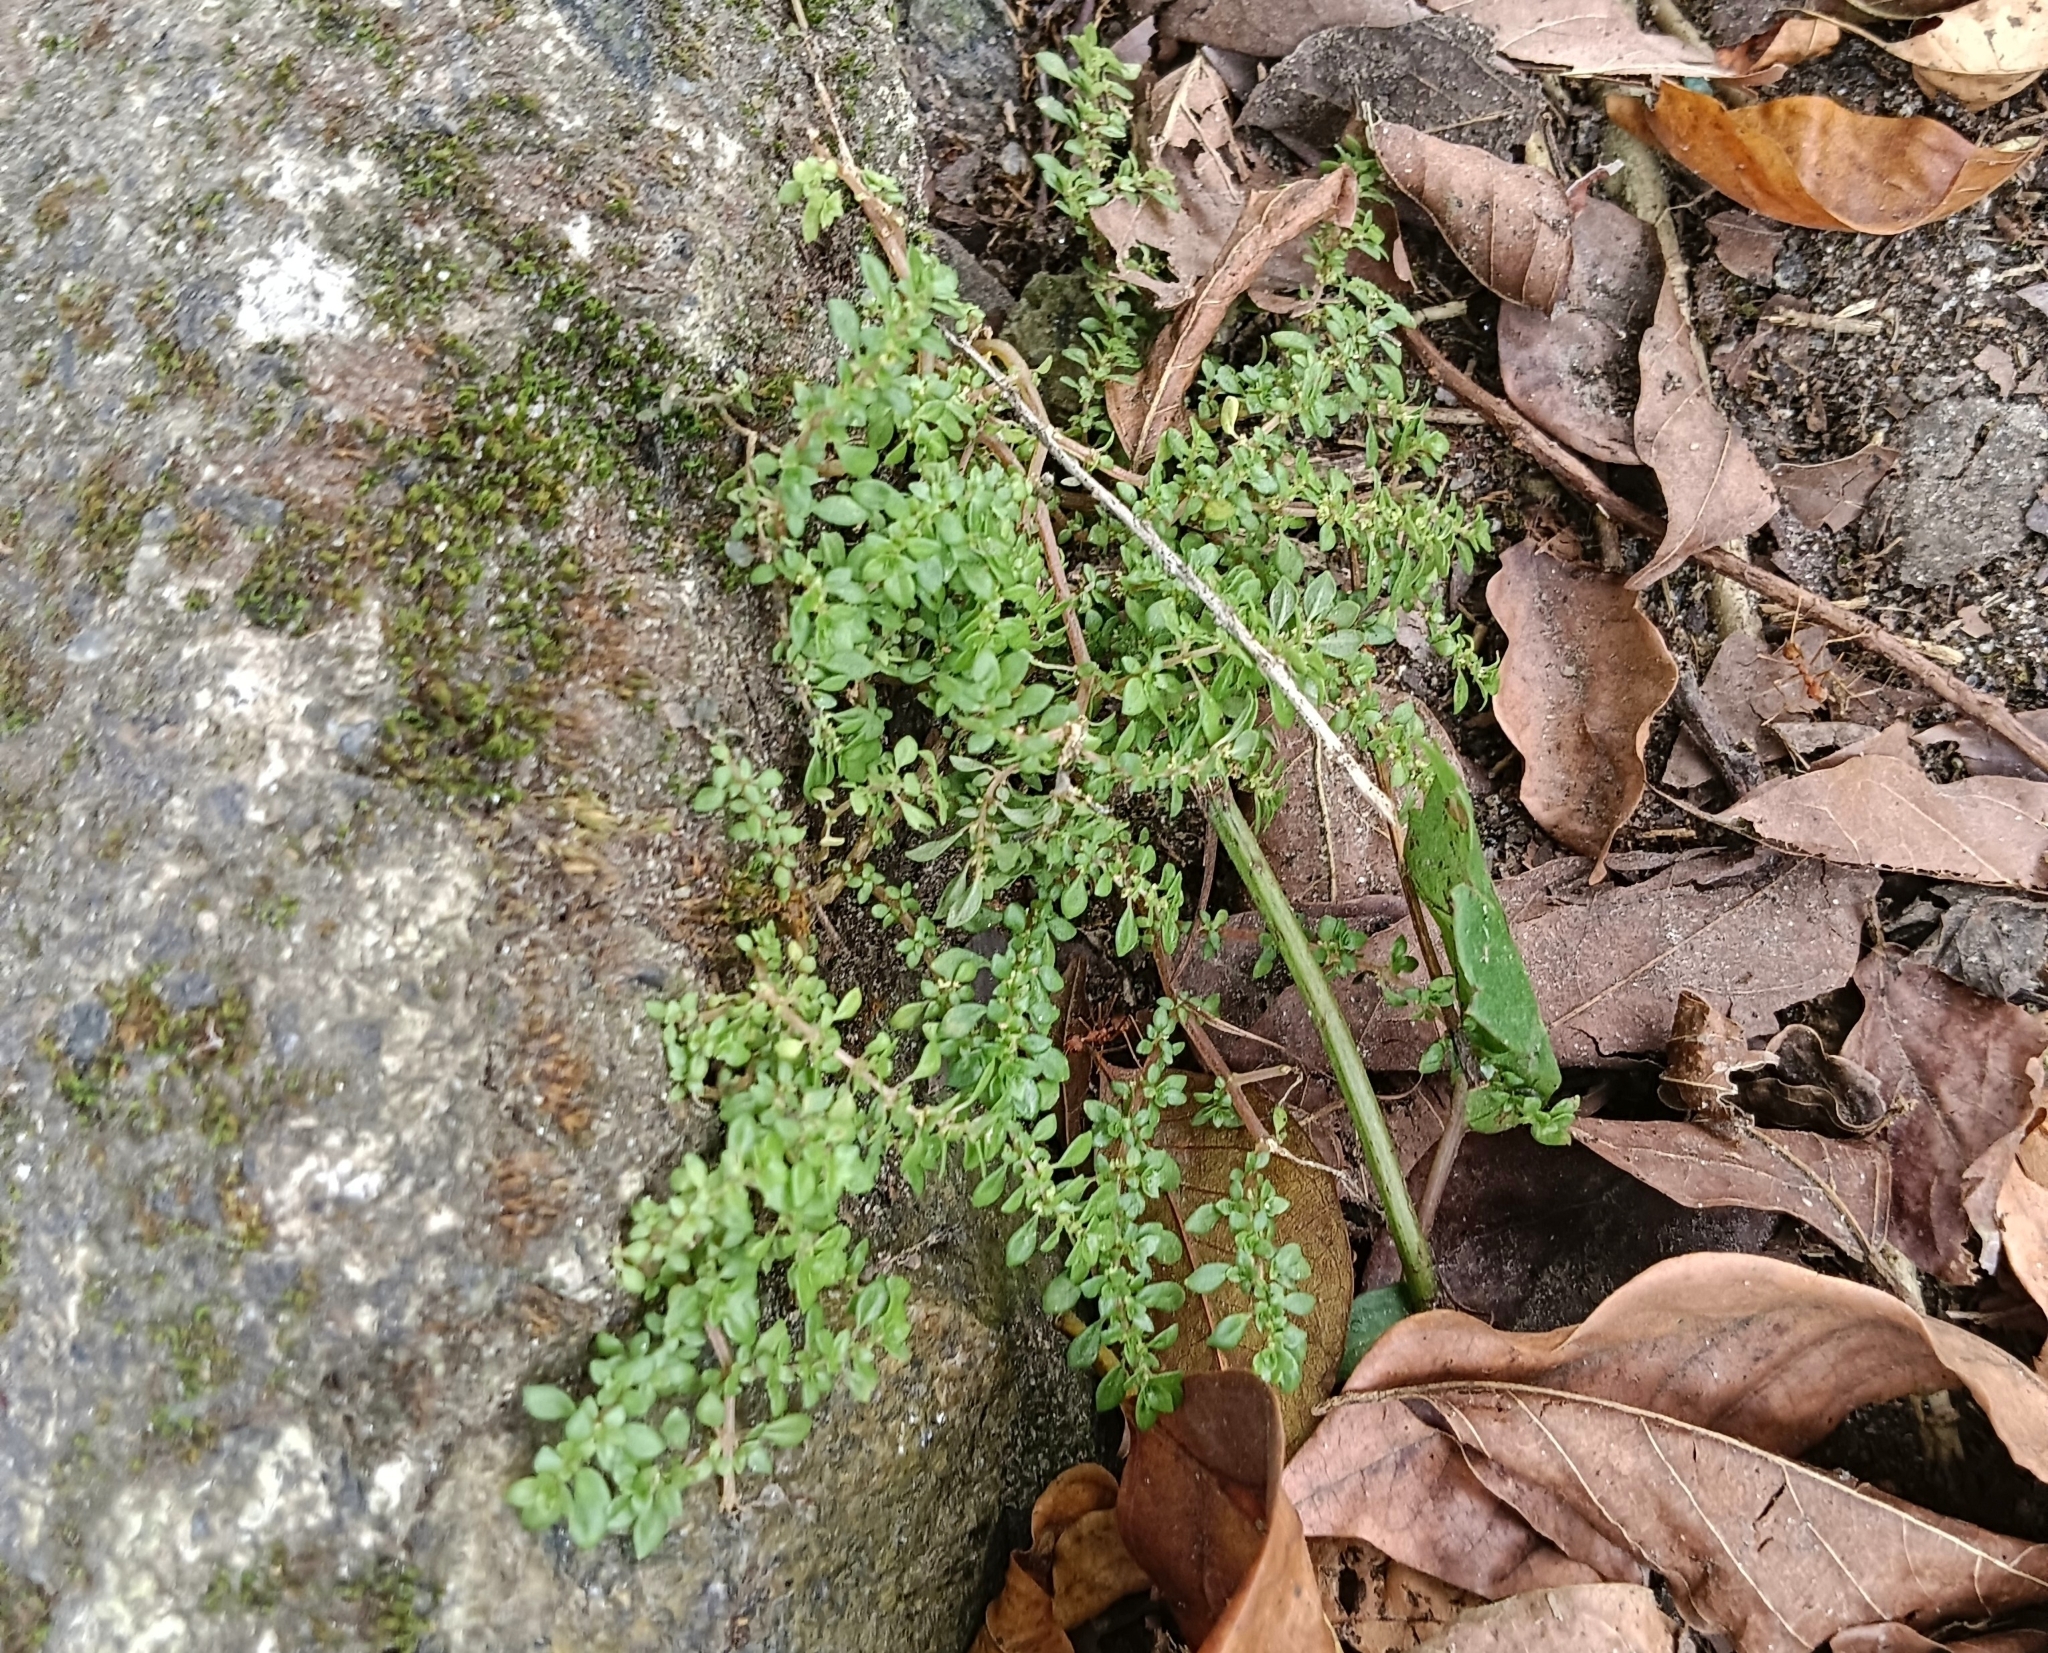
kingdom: Plantae
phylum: Tracheophyta
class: Magnoliopsida
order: Rosales
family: Urticaceae
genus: Pilea
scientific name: Pilea microphylla
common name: Artillery-plant
